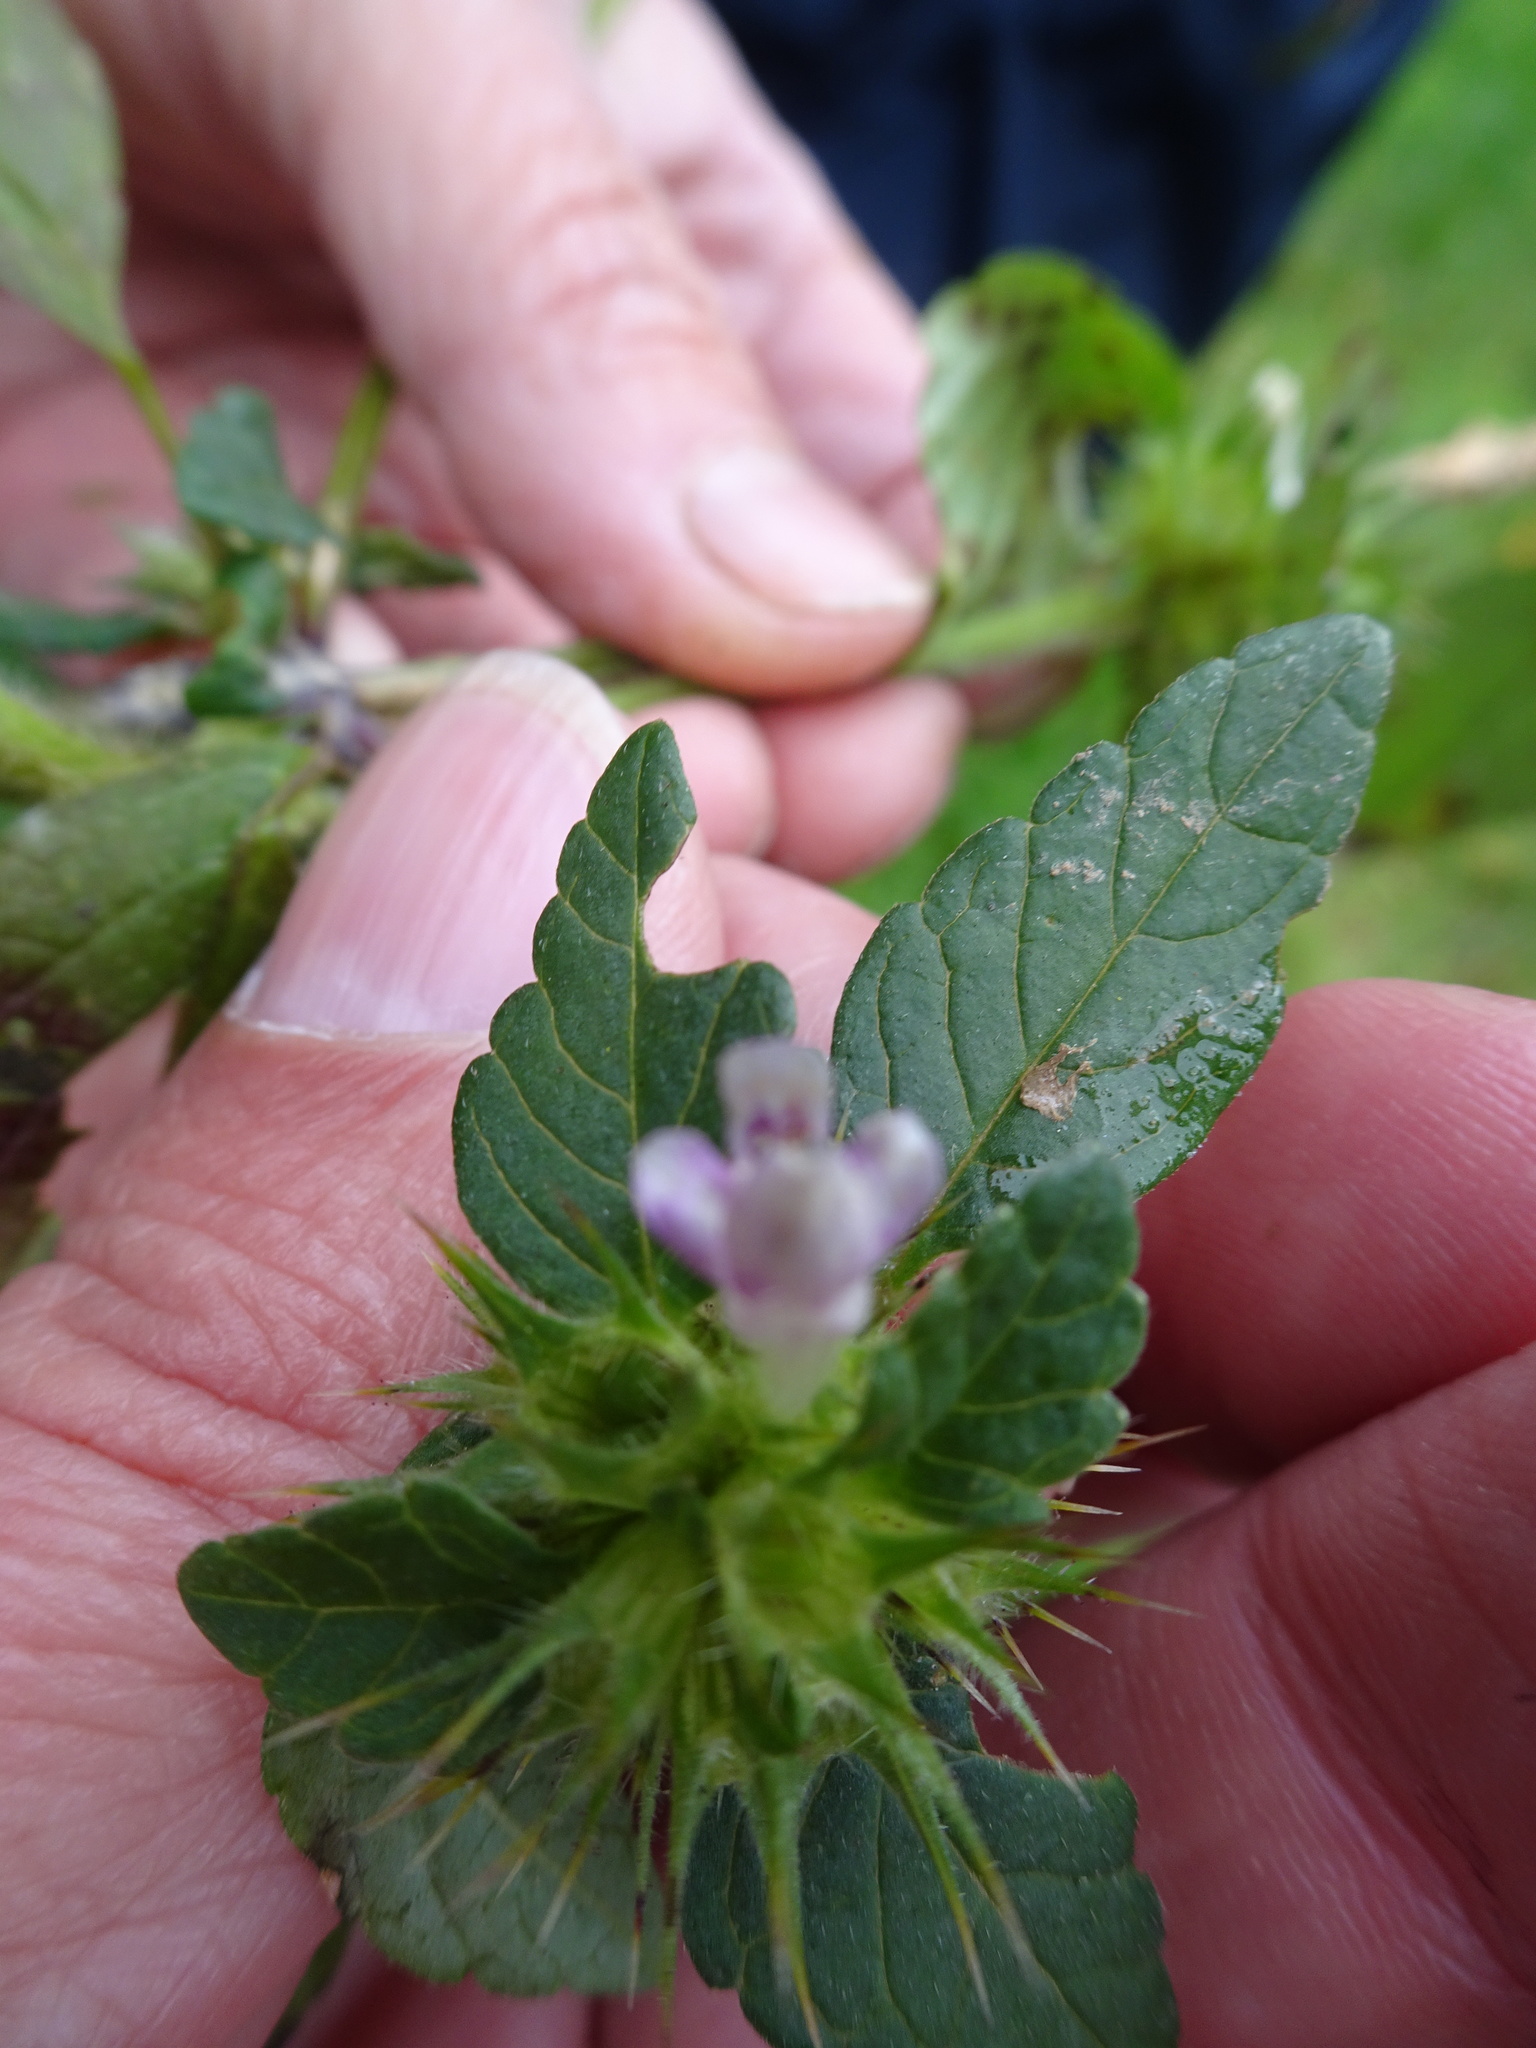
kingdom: Plantae
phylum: Tracheophyta
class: Magnoliopsida
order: Lamiales
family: Lamiaceae
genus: Galeopsis
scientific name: Galeopsis tetrahit
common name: Common hemp-nettle
